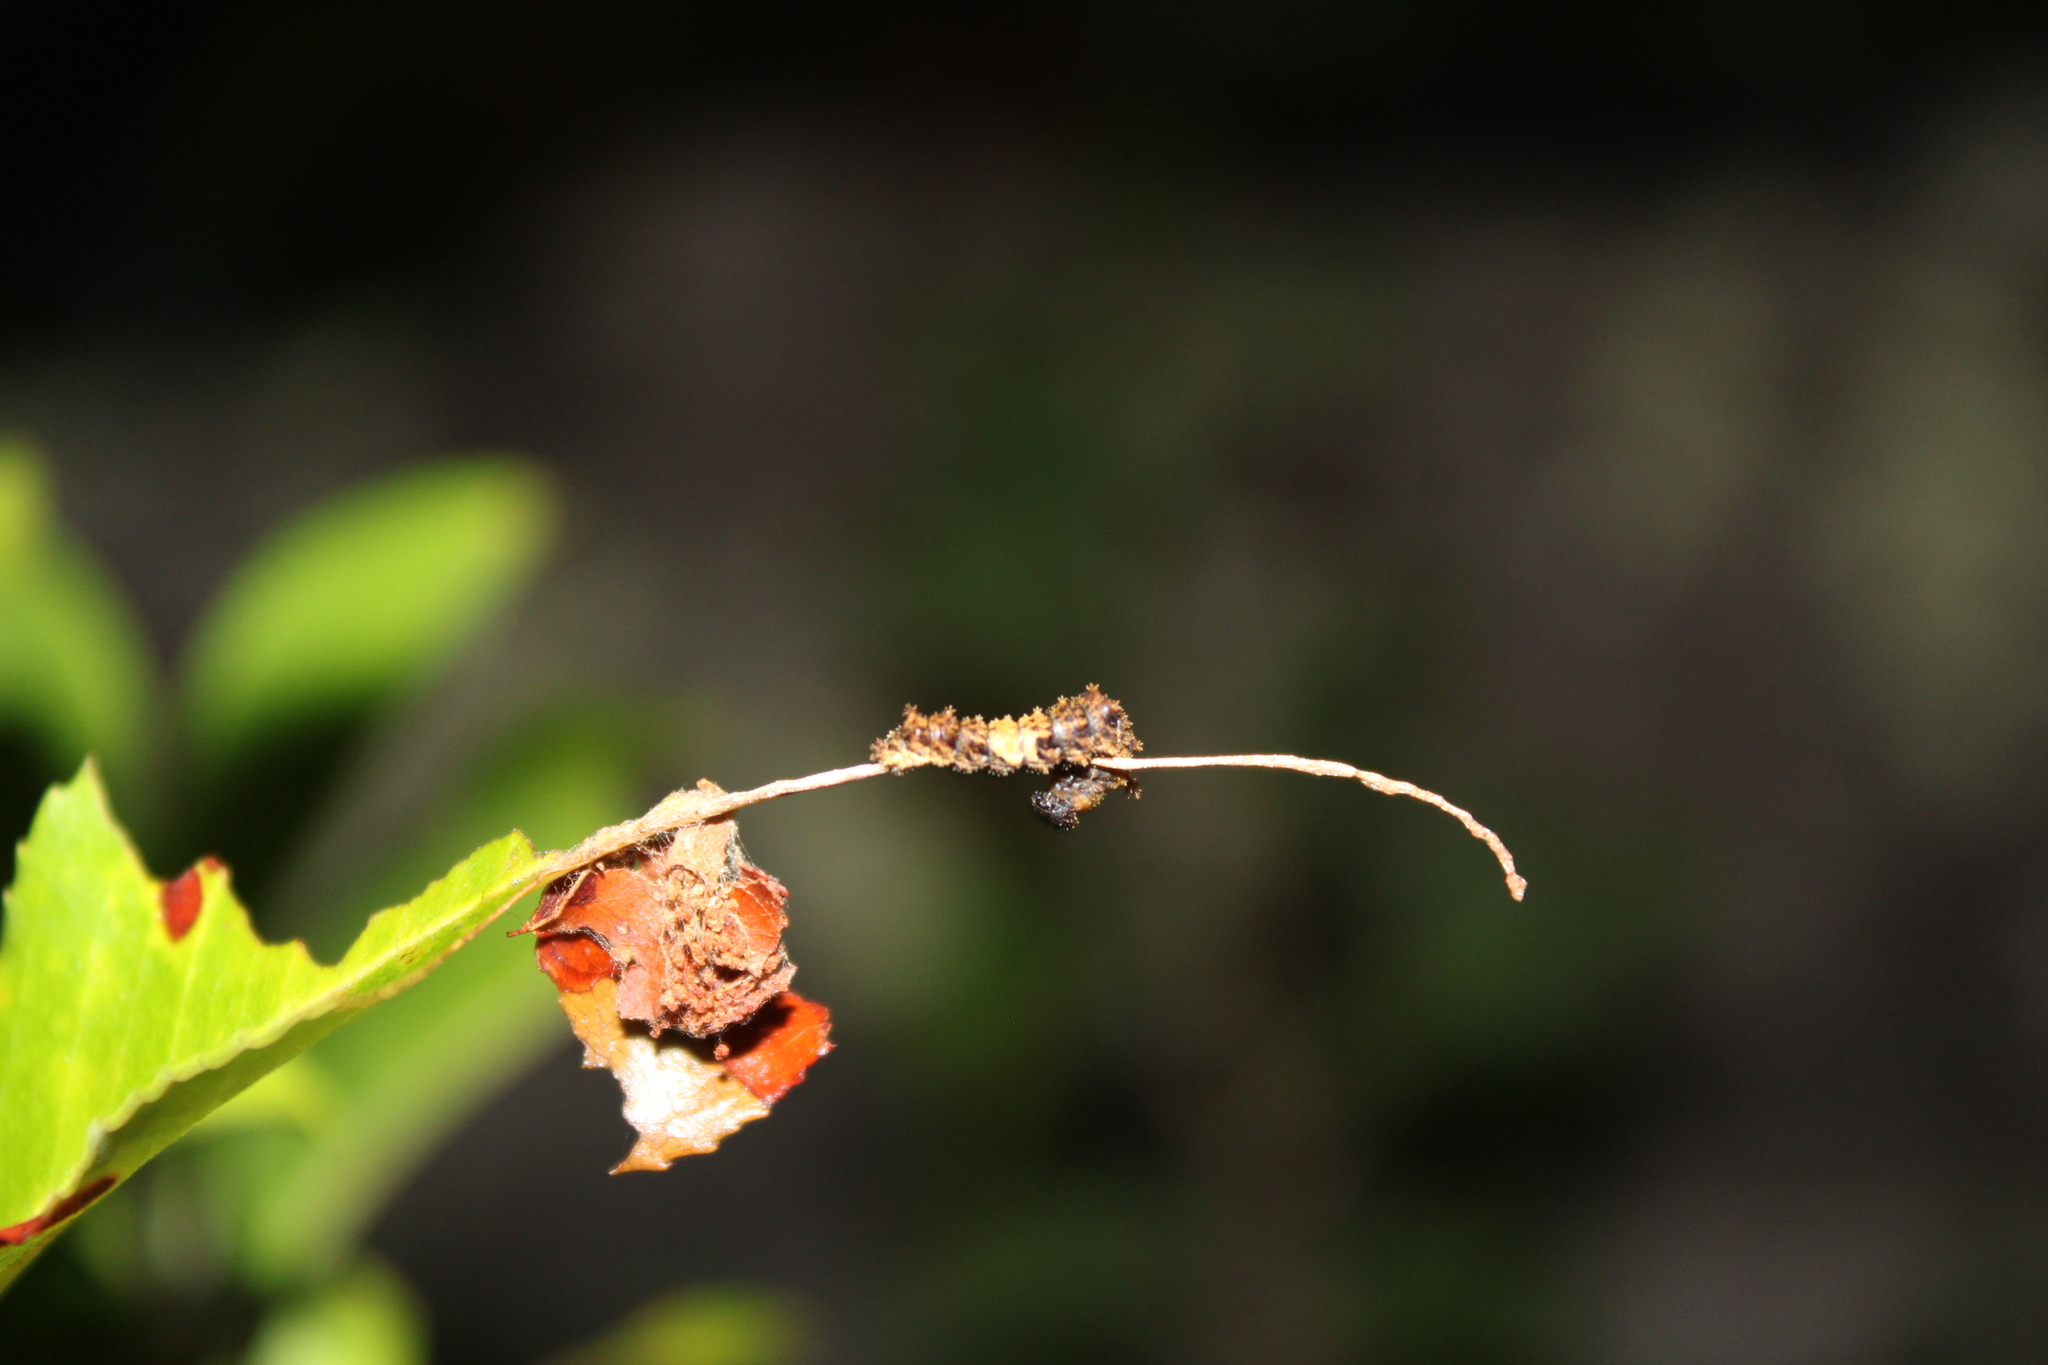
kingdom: Animalia
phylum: Arthropoda
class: Insecta
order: Lepidoptera
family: Nymphalidae
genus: Limenitis
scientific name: Limenitis astyanax
